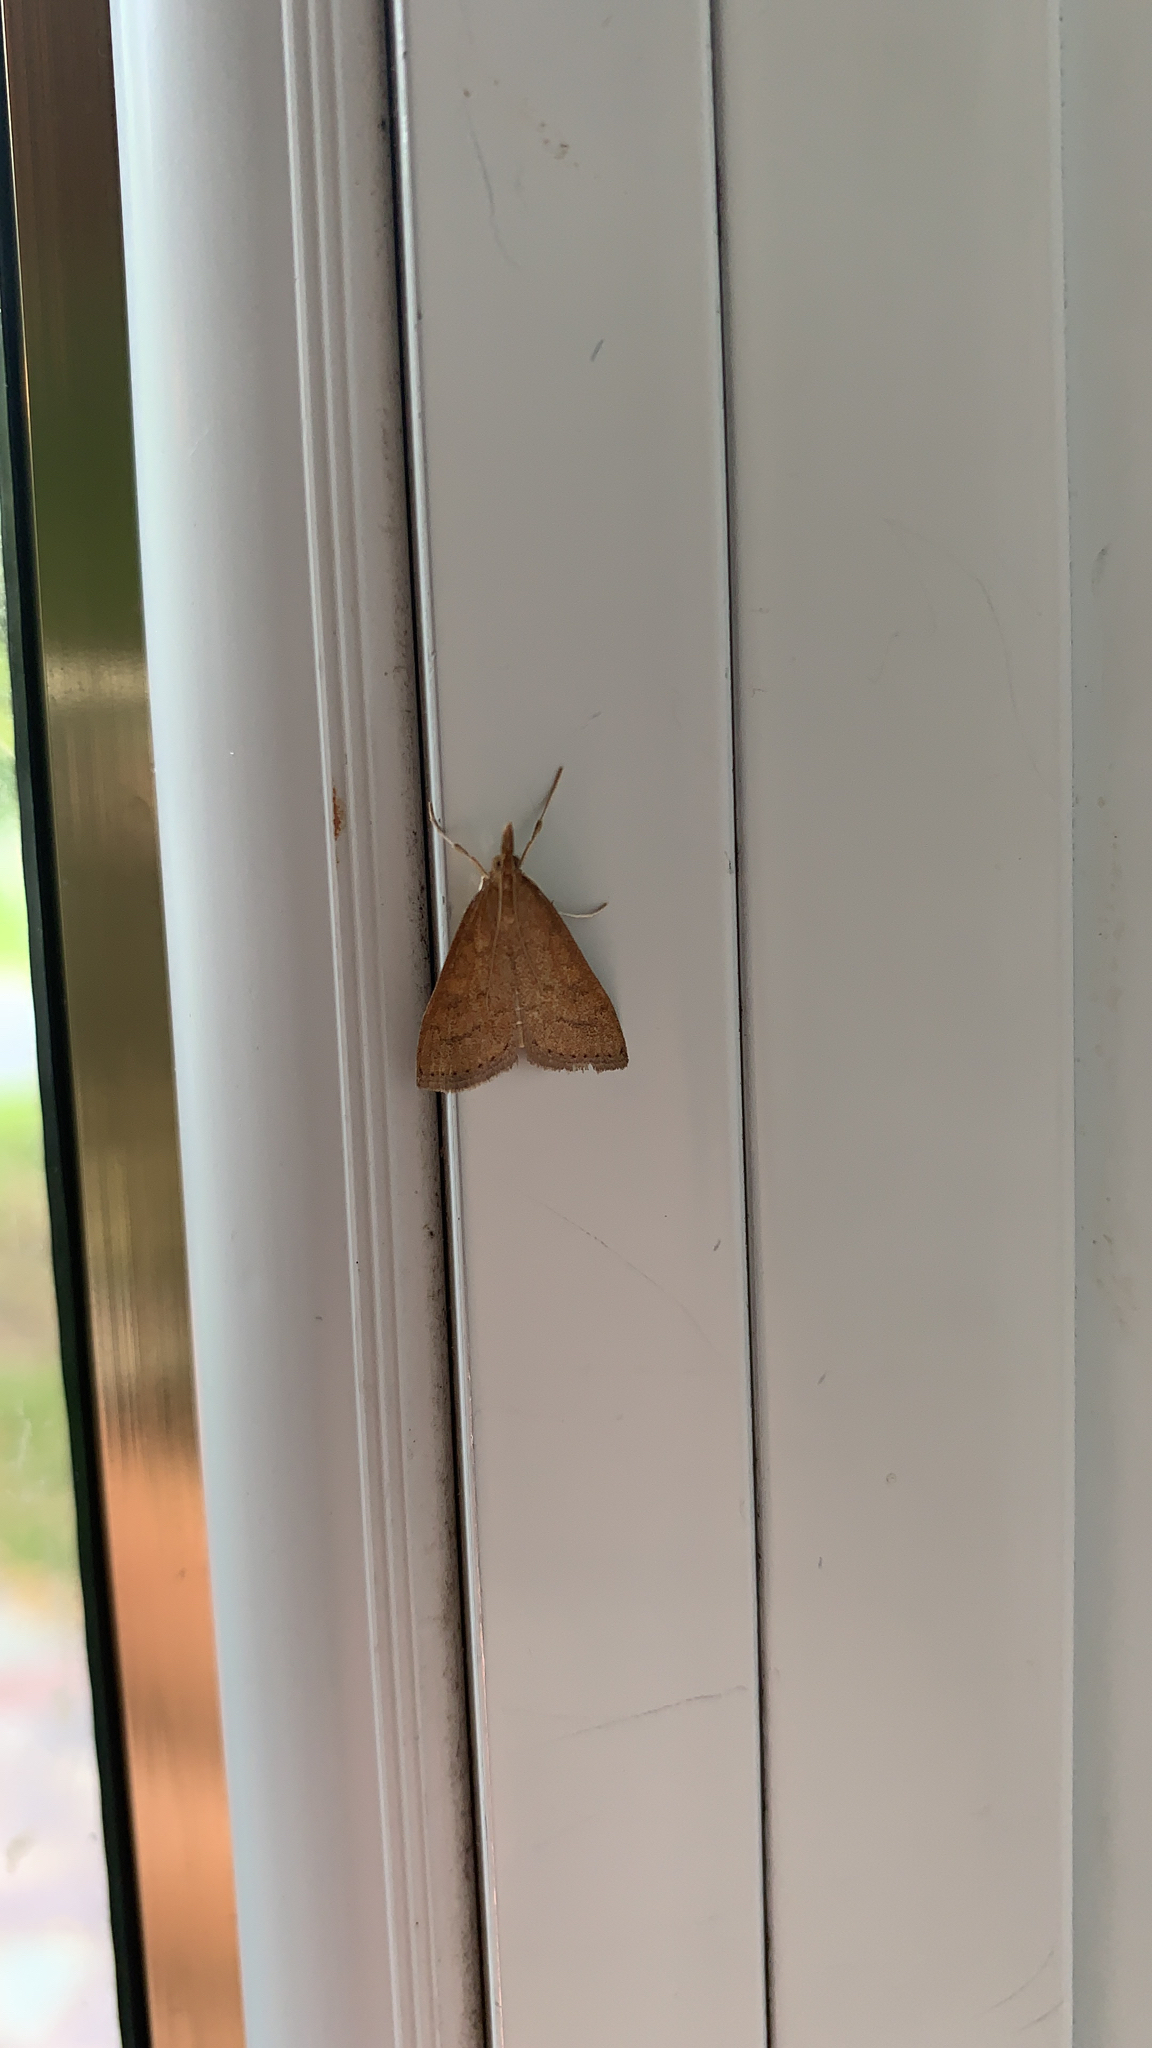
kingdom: Animalia
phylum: Arthropoda
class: Insecta
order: Lepidoptera
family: Crambidae
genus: Udea
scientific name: Udea rubigalis
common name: Celery leaftier moth
